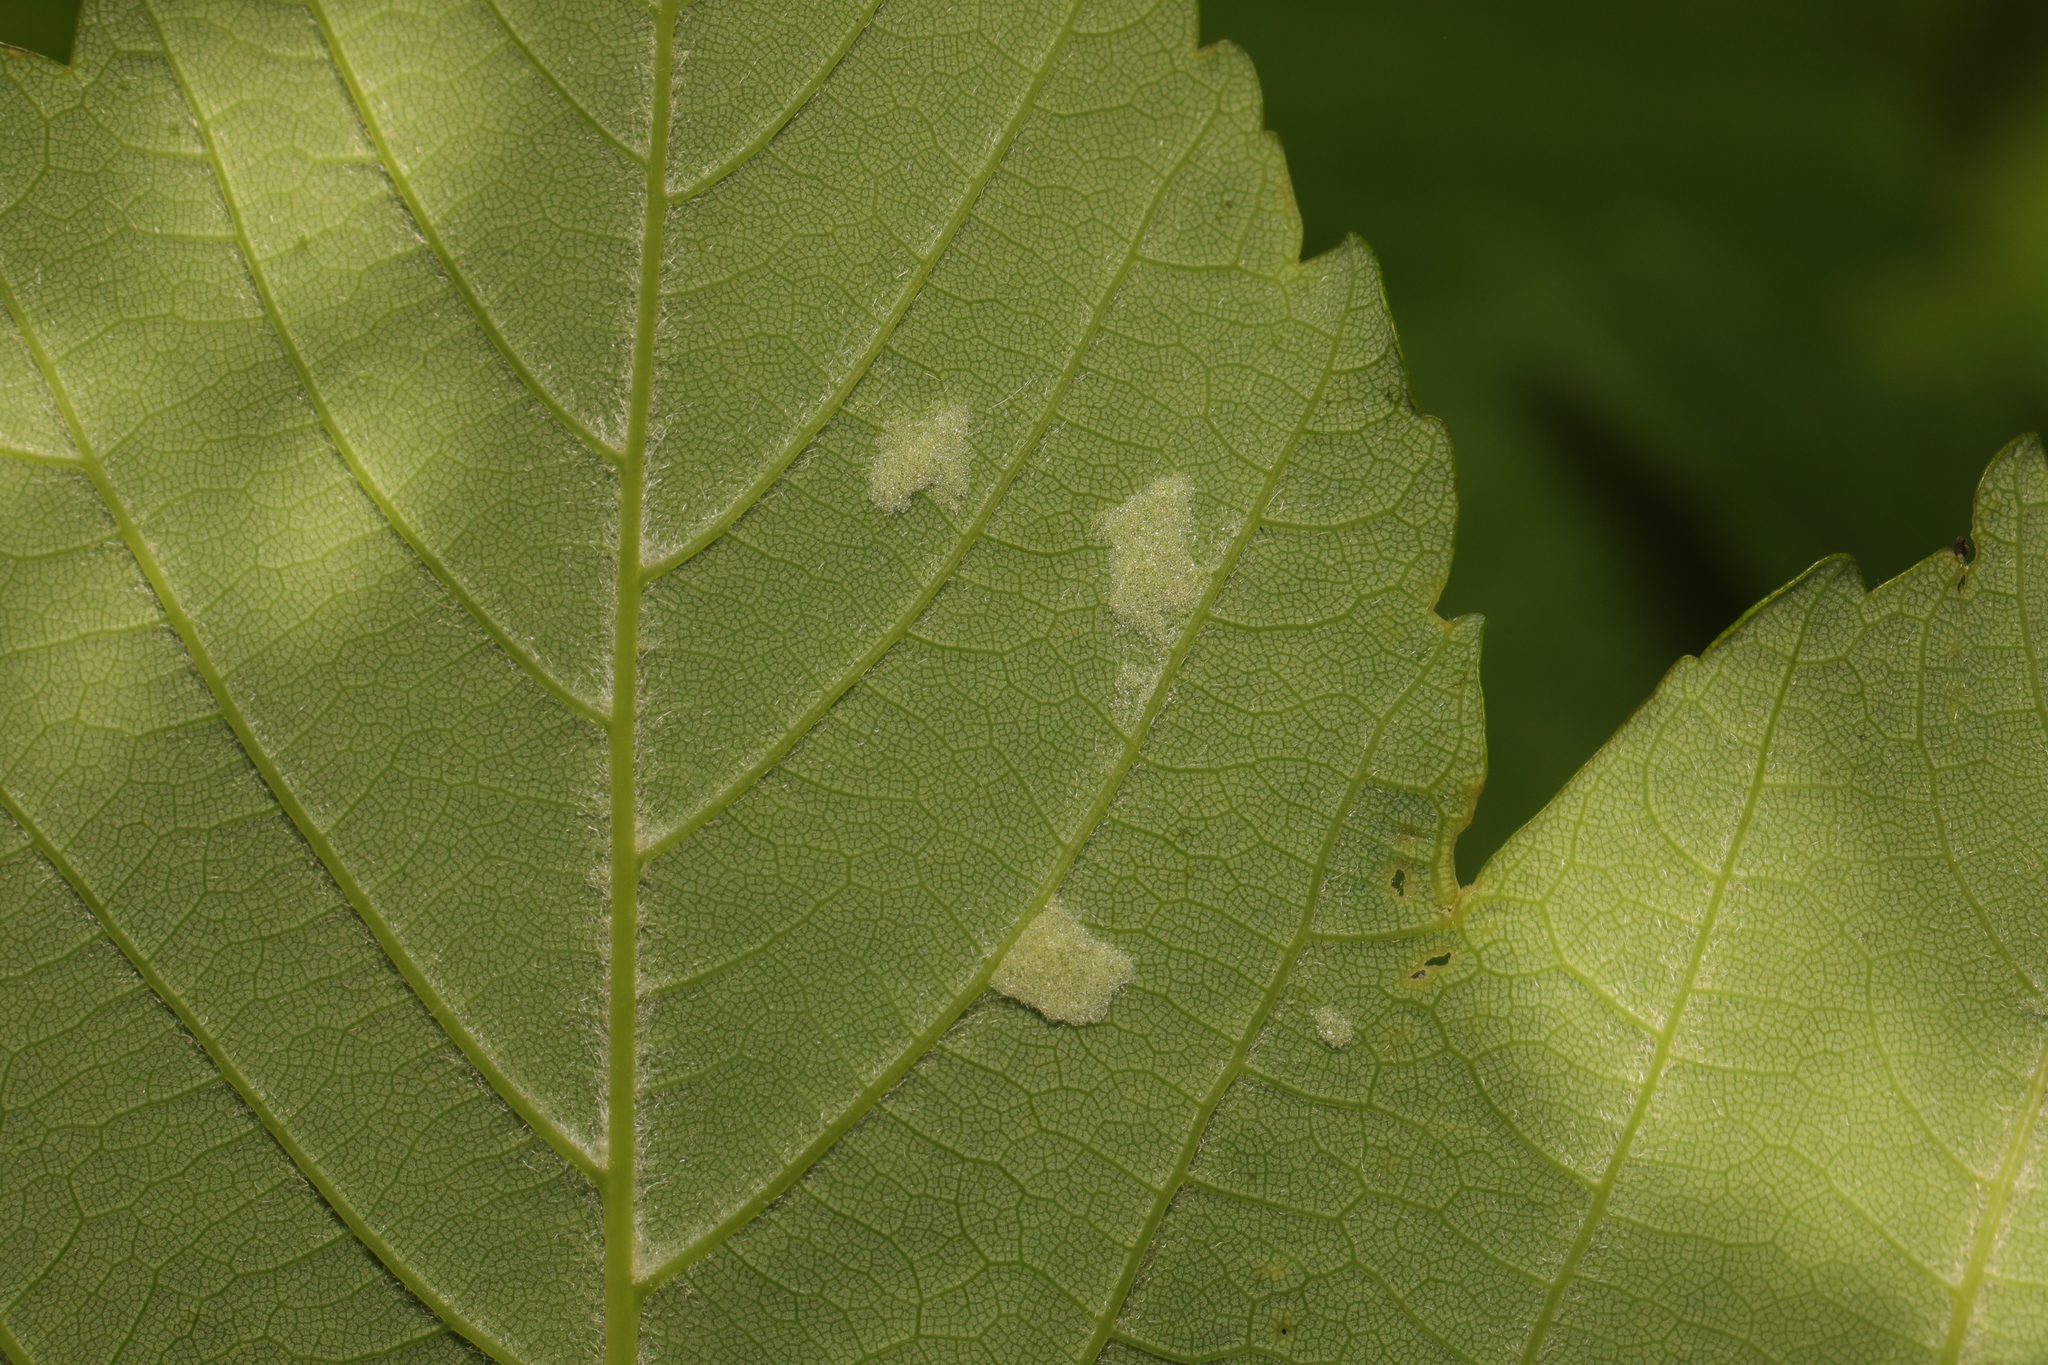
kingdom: Animalia
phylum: Arthropoda
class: Arachnida
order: Trombidiformes
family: Eriophyidae
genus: Aceria
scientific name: Aceria pseudoplatani
